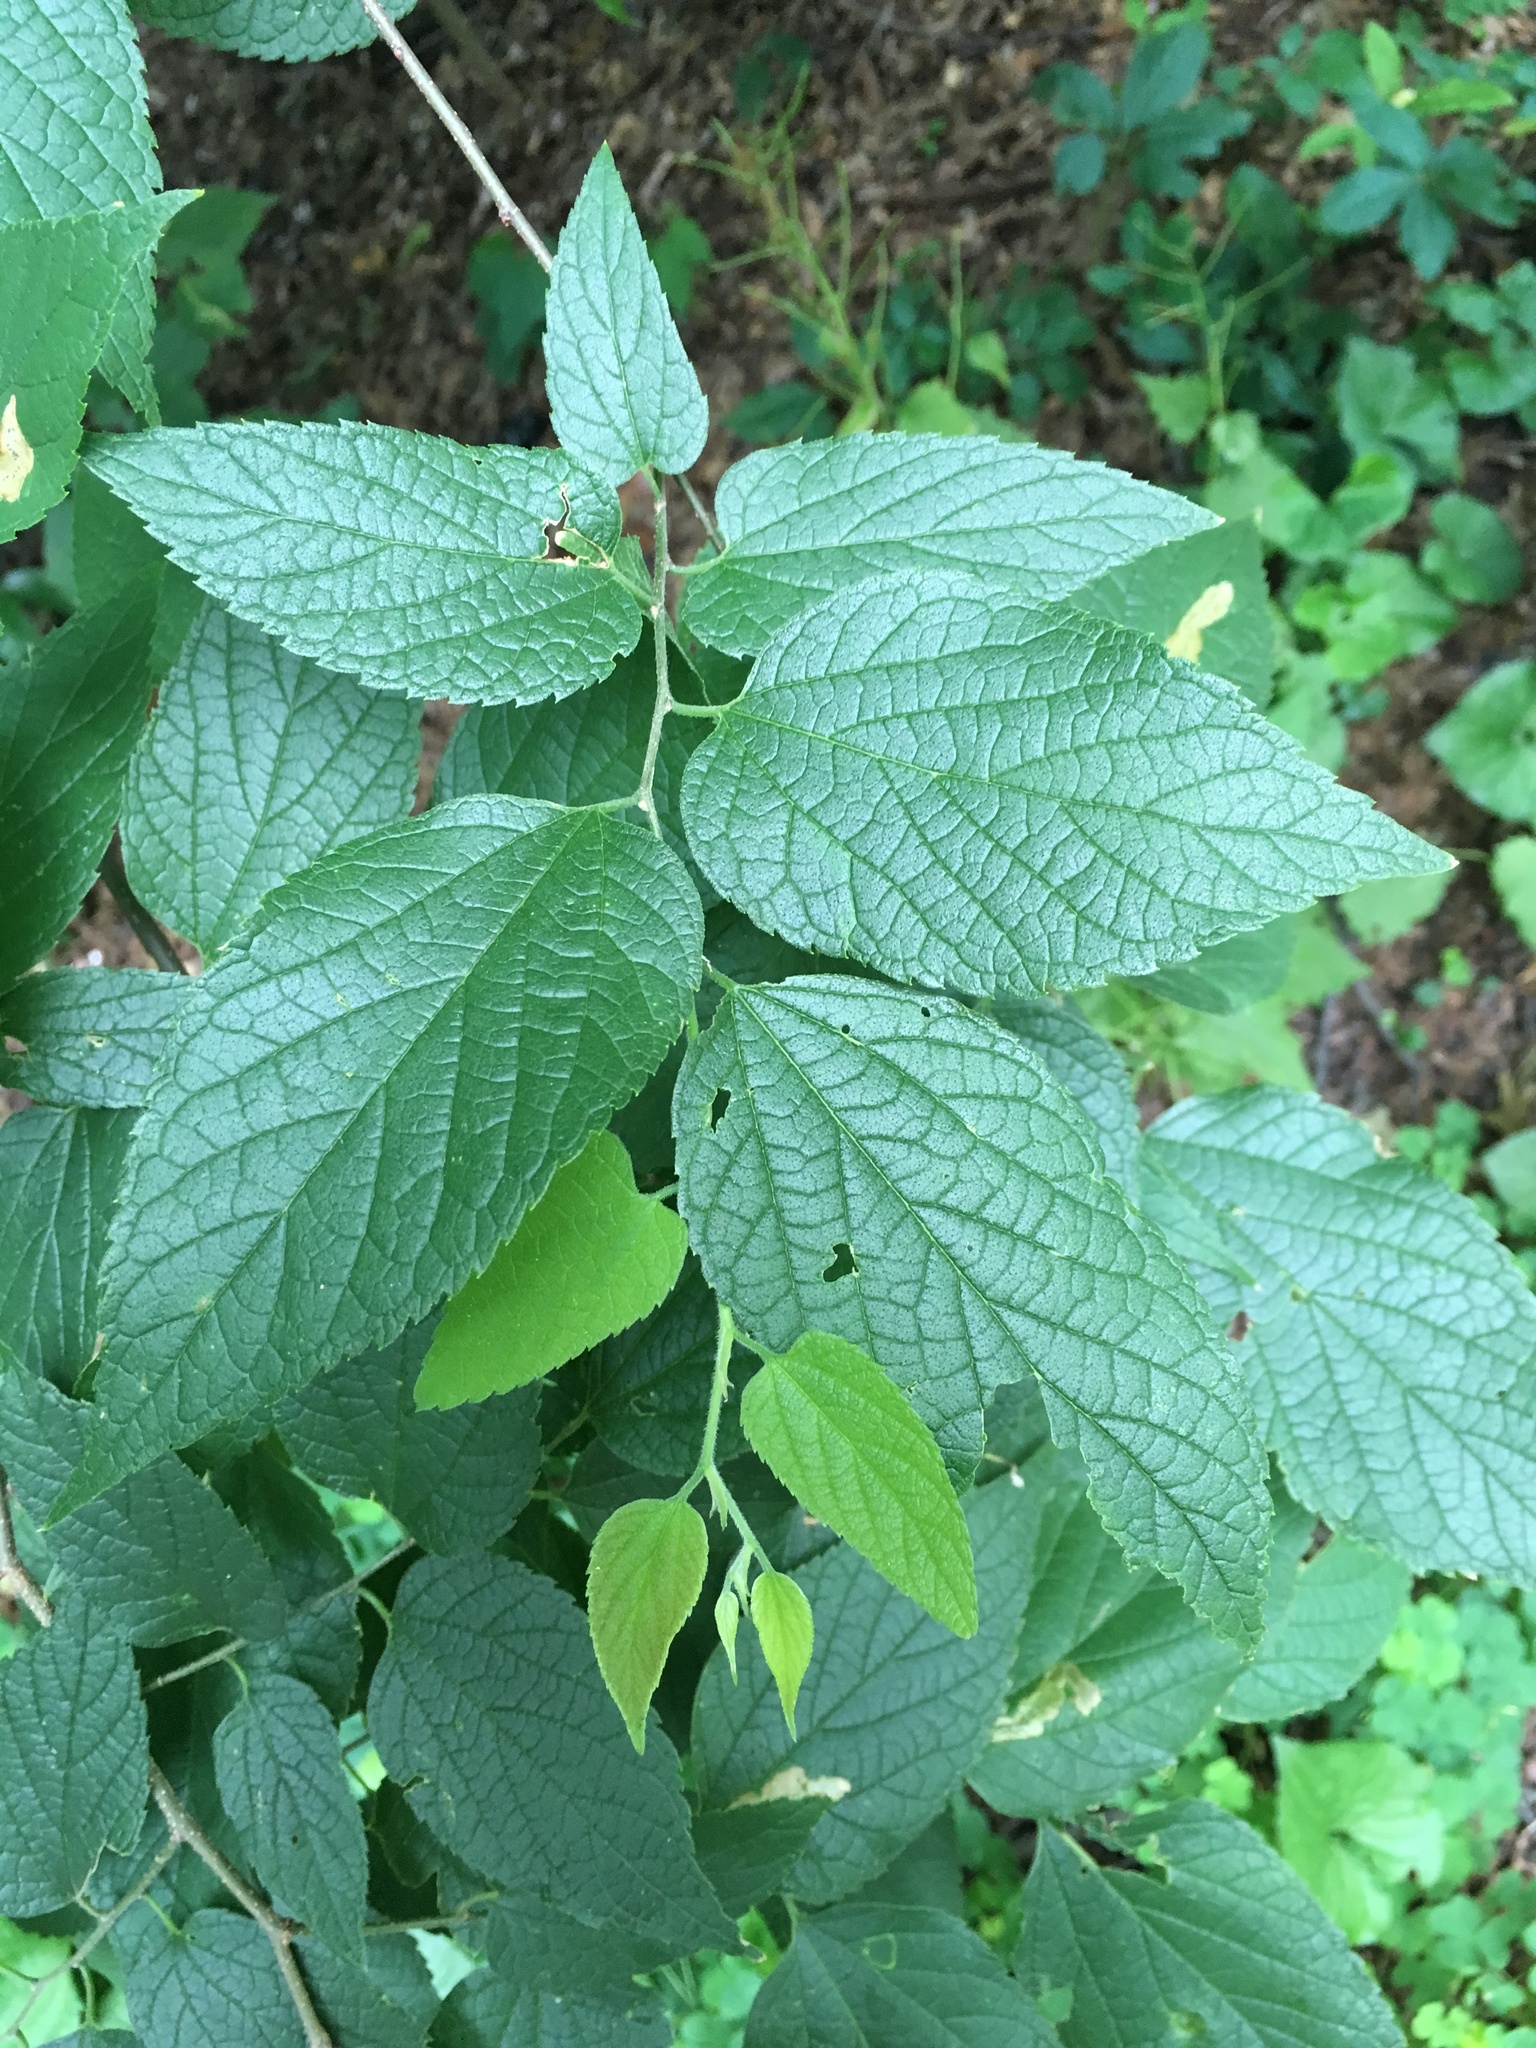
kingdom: Plantae
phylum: Tracheophyta
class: Magnoliopsida
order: Rosales
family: Cannabaceae
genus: Celtis
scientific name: Celtis occidentalis
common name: Common hackberry
